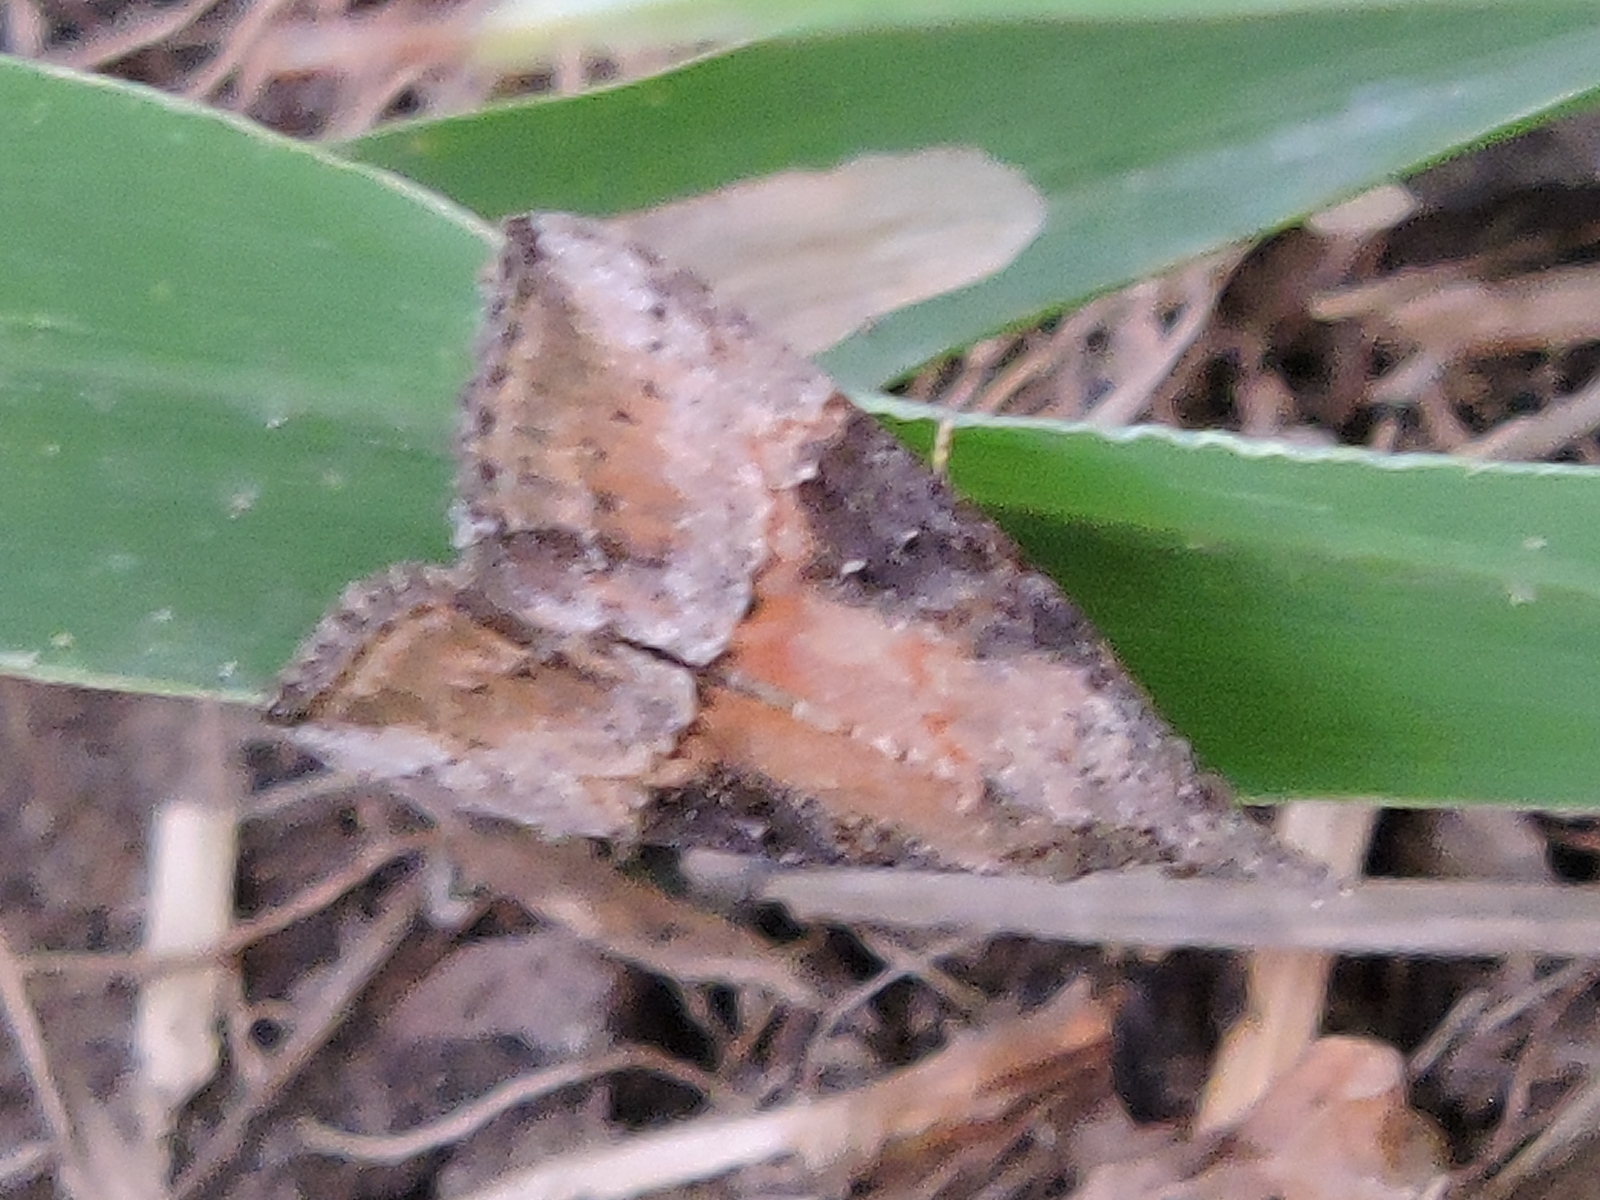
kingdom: Animalia
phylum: Arthropoda
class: Insecta
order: Lepidoptera
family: Erebidae
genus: Hypena
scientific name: Hypena scabra
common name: Green cloverworm
